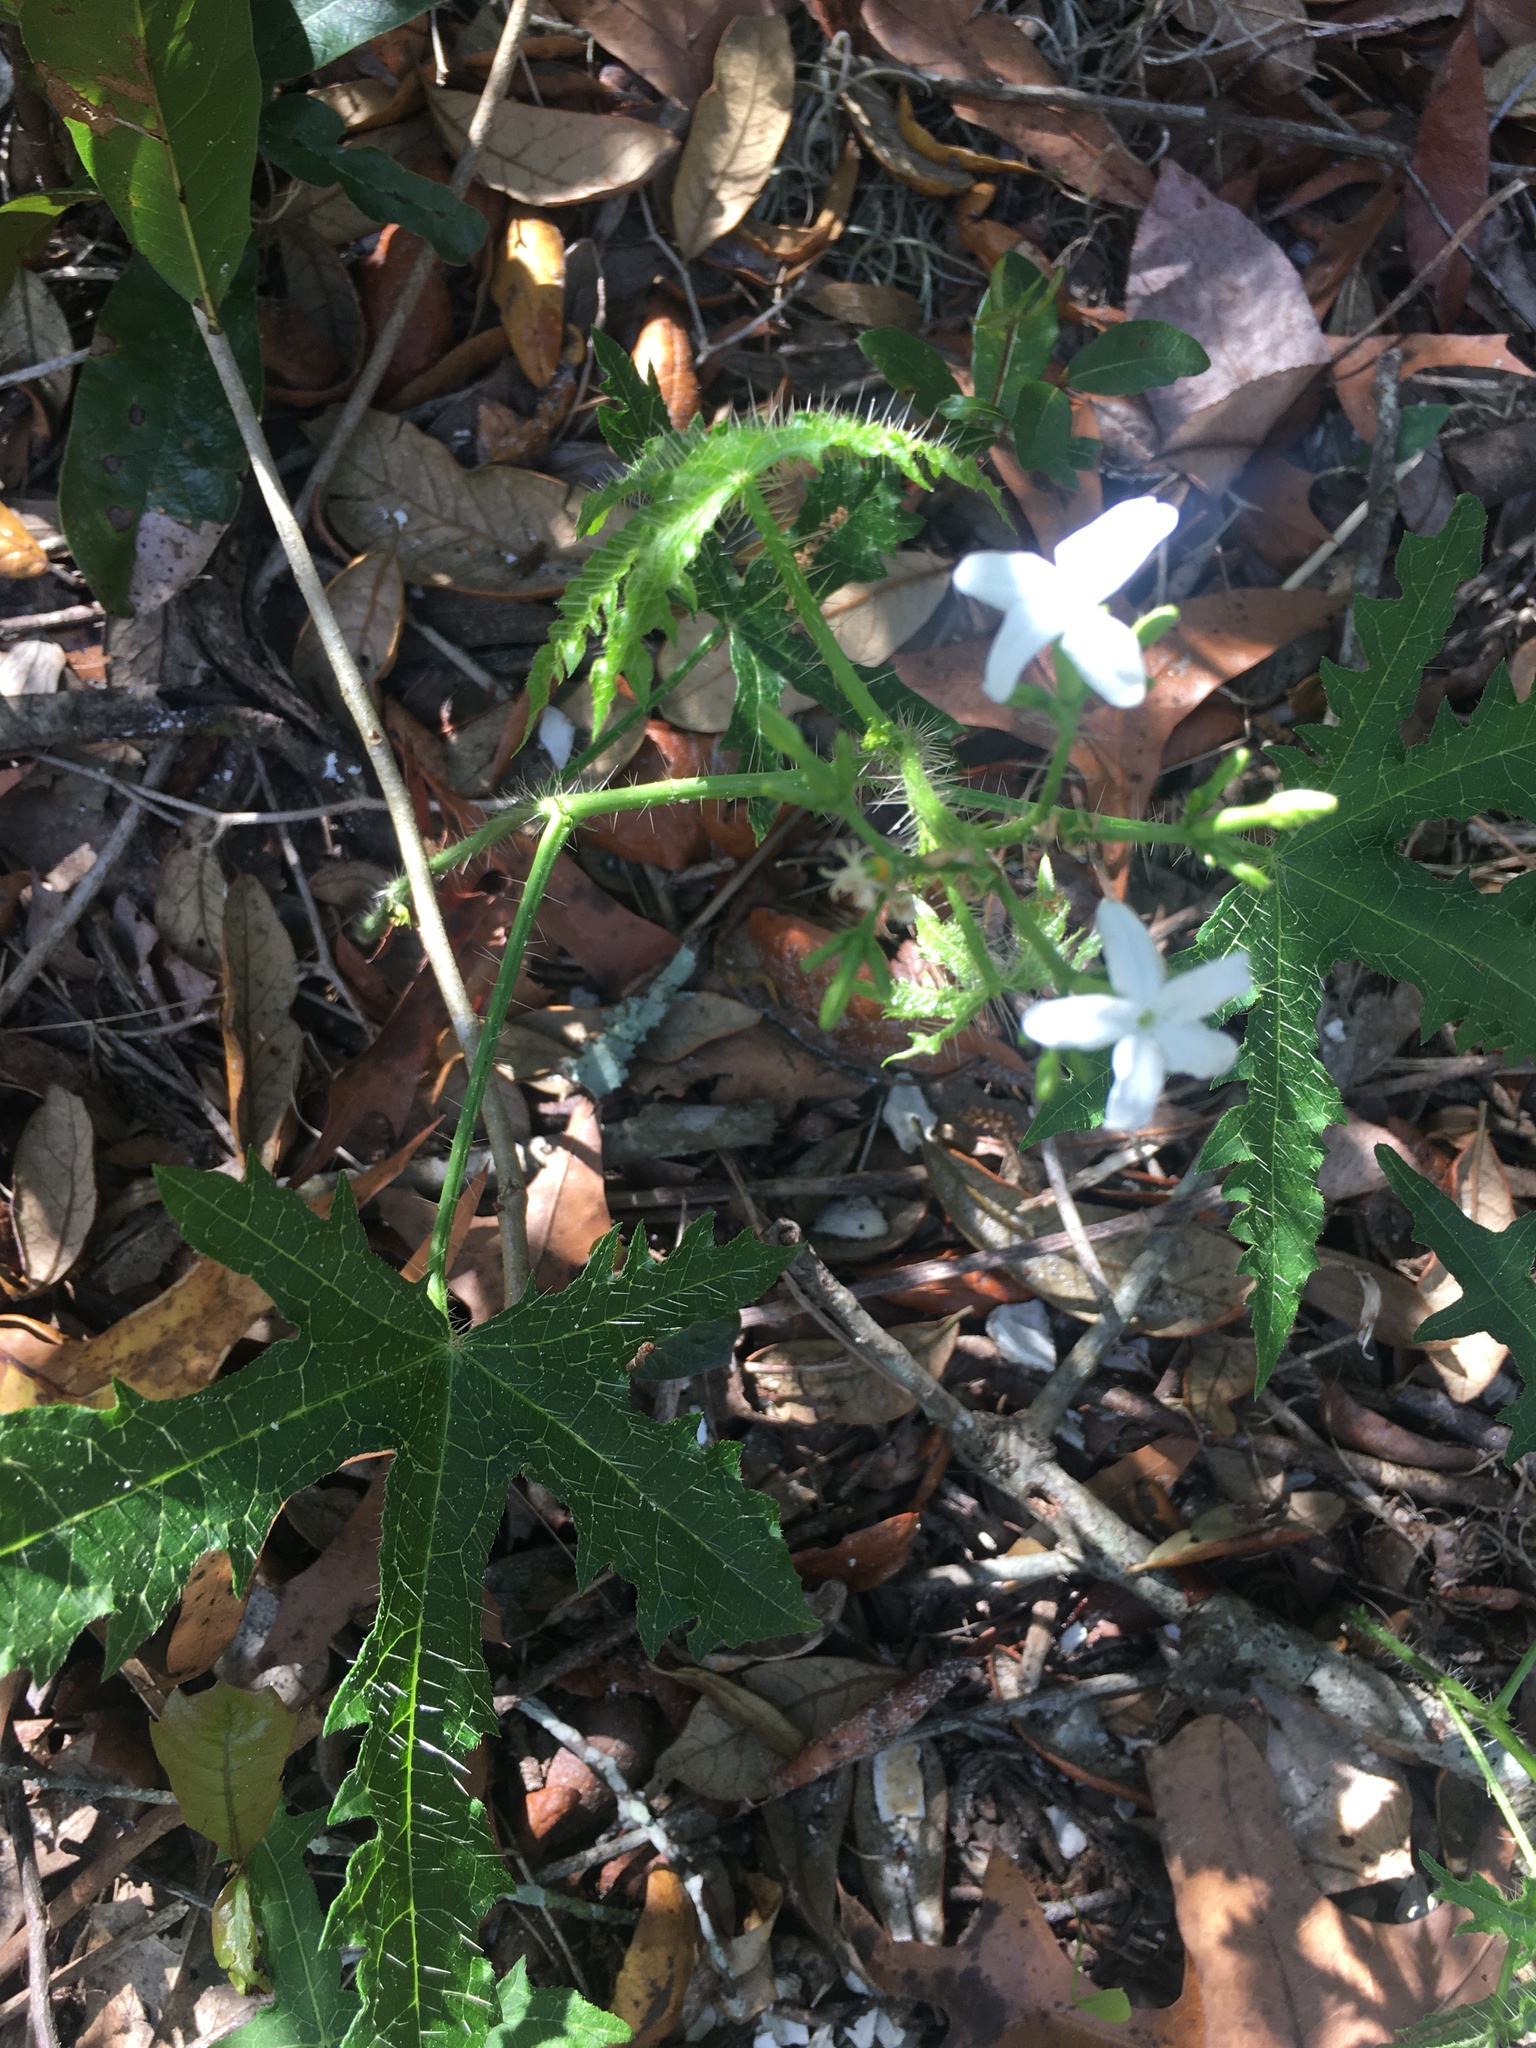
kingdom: Plantae
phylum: Tracheophyta
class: Magnoliopsida
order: Malpighiales
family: Euphorbiaceae
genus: Cnidoscolus
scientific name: Cnidoscolus stimulosus
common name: Bull-nettle
